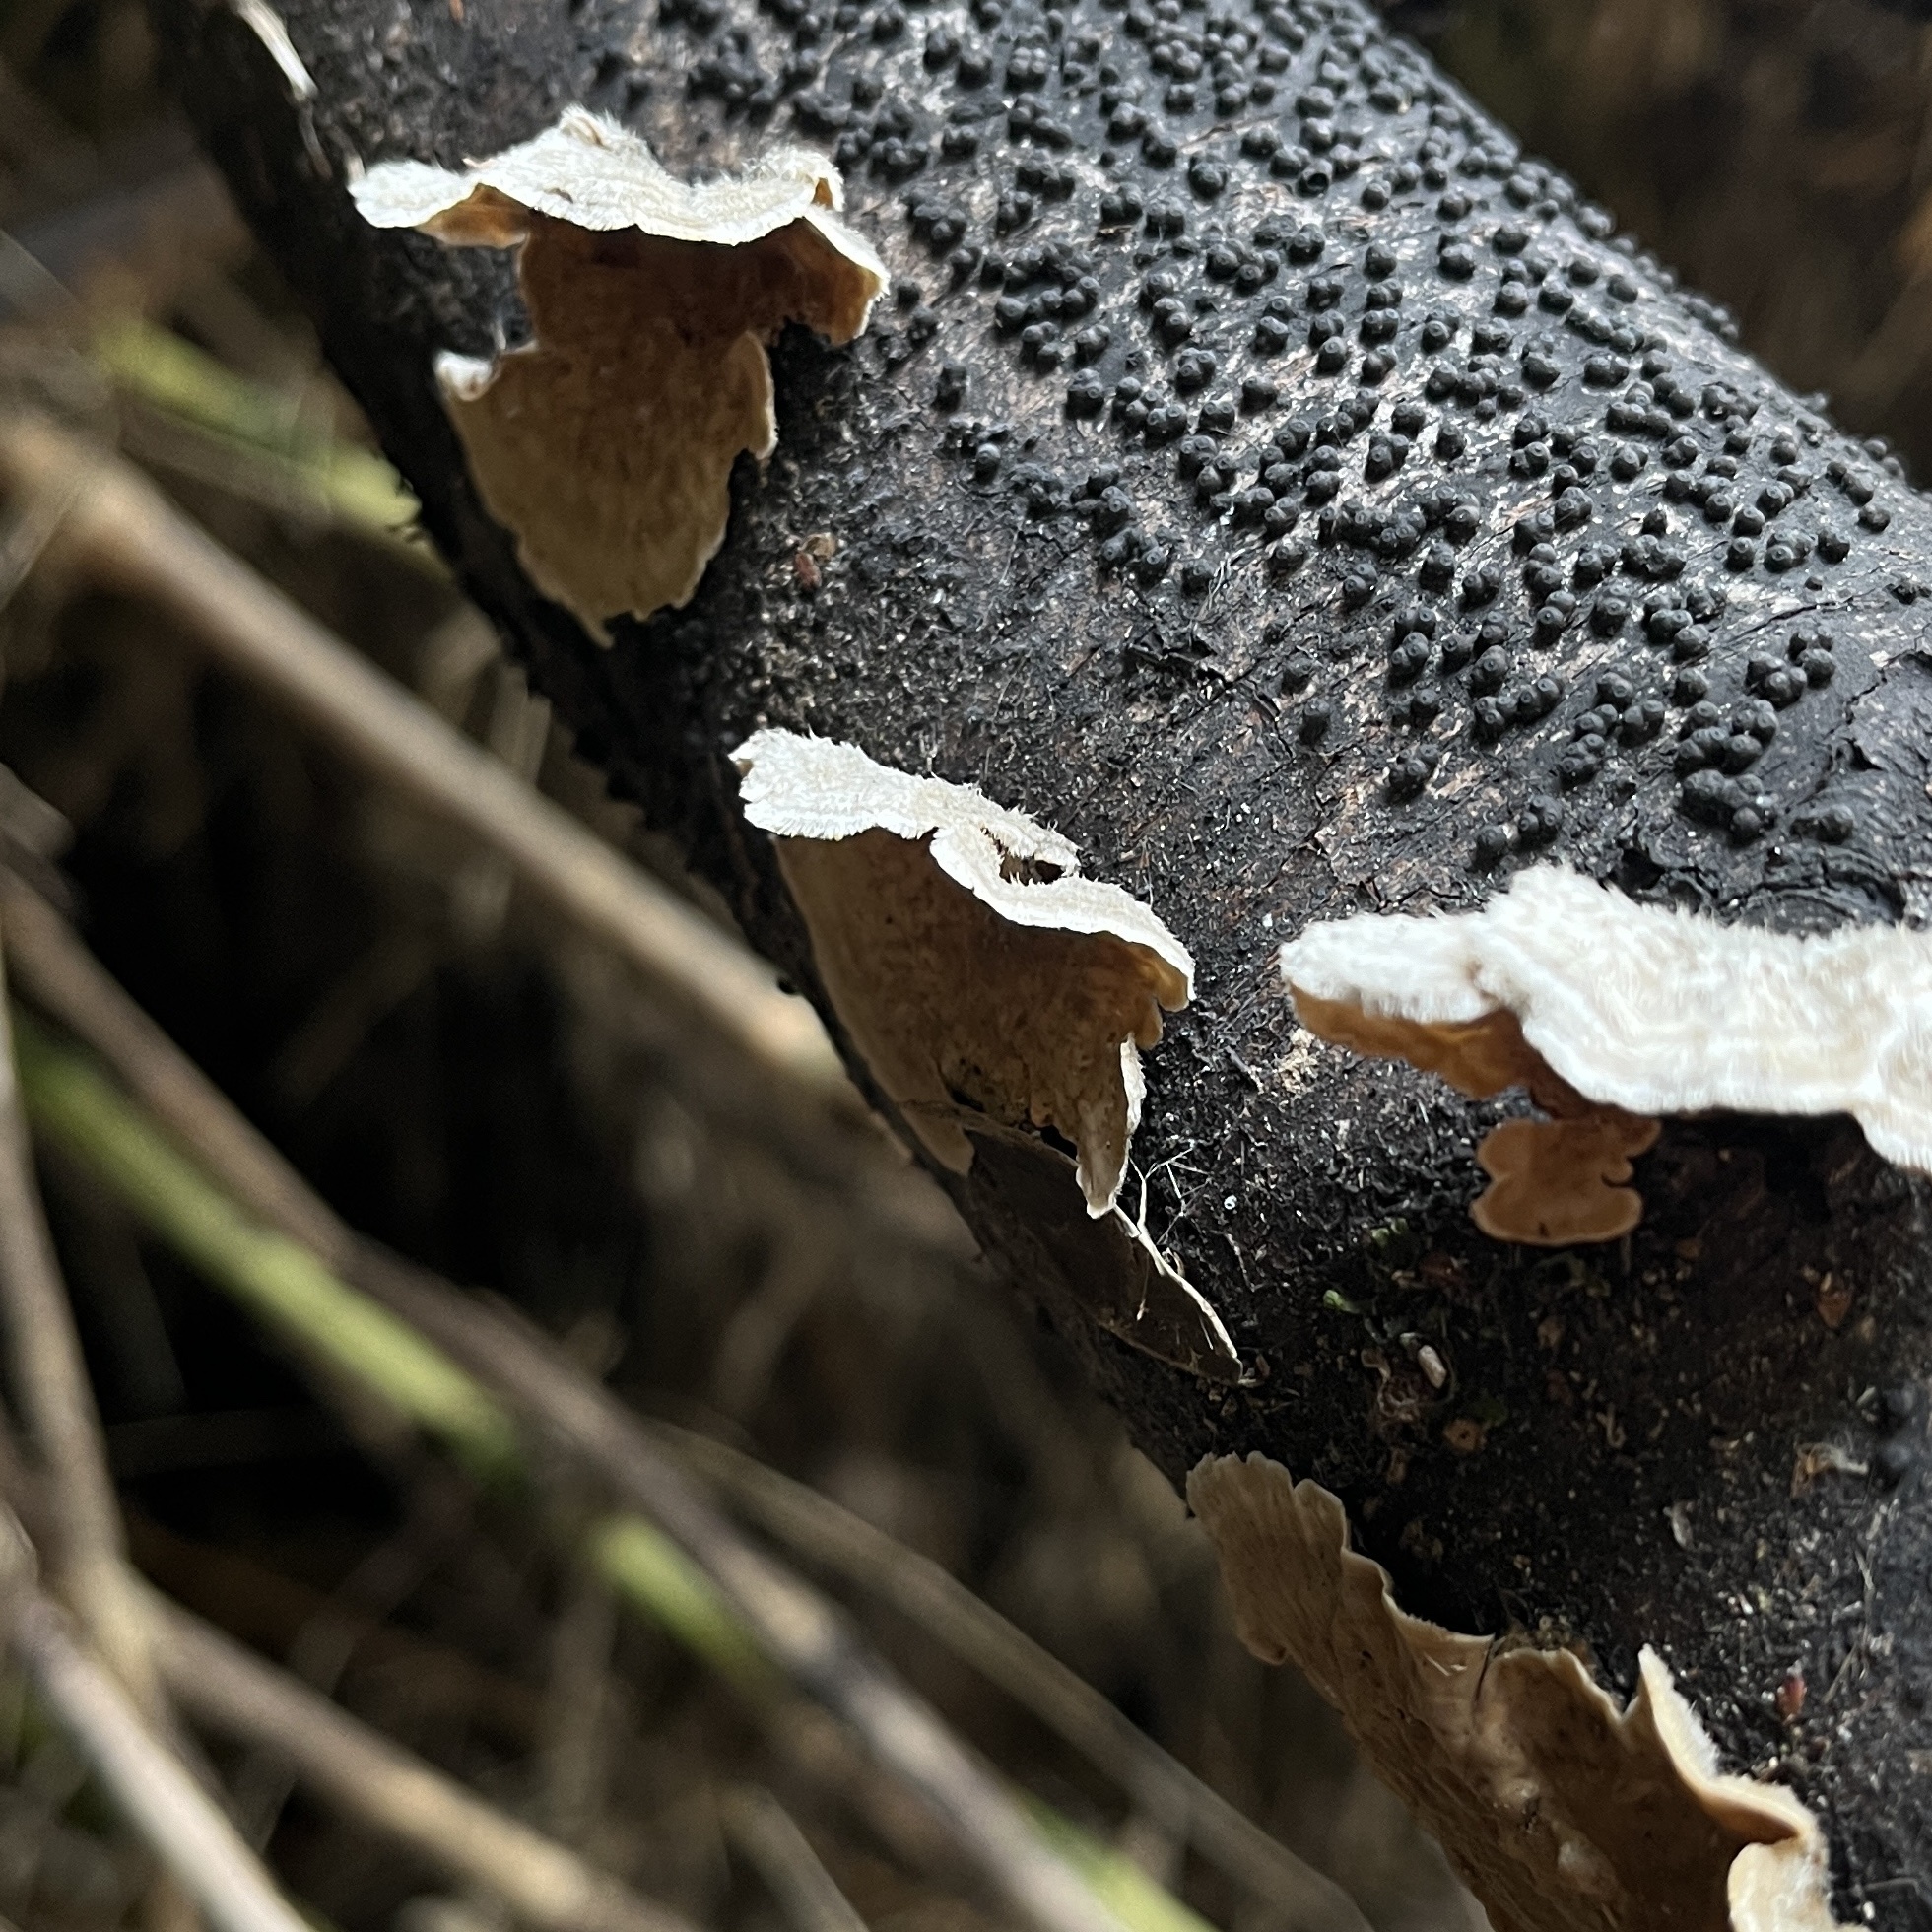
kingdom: Fungi
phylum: Basidiomycota
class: Agaricomycetes
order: Russulales
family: Stereaceae
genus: Stereum
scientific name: Stereum hirsutum
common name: Hairy curtain crust
